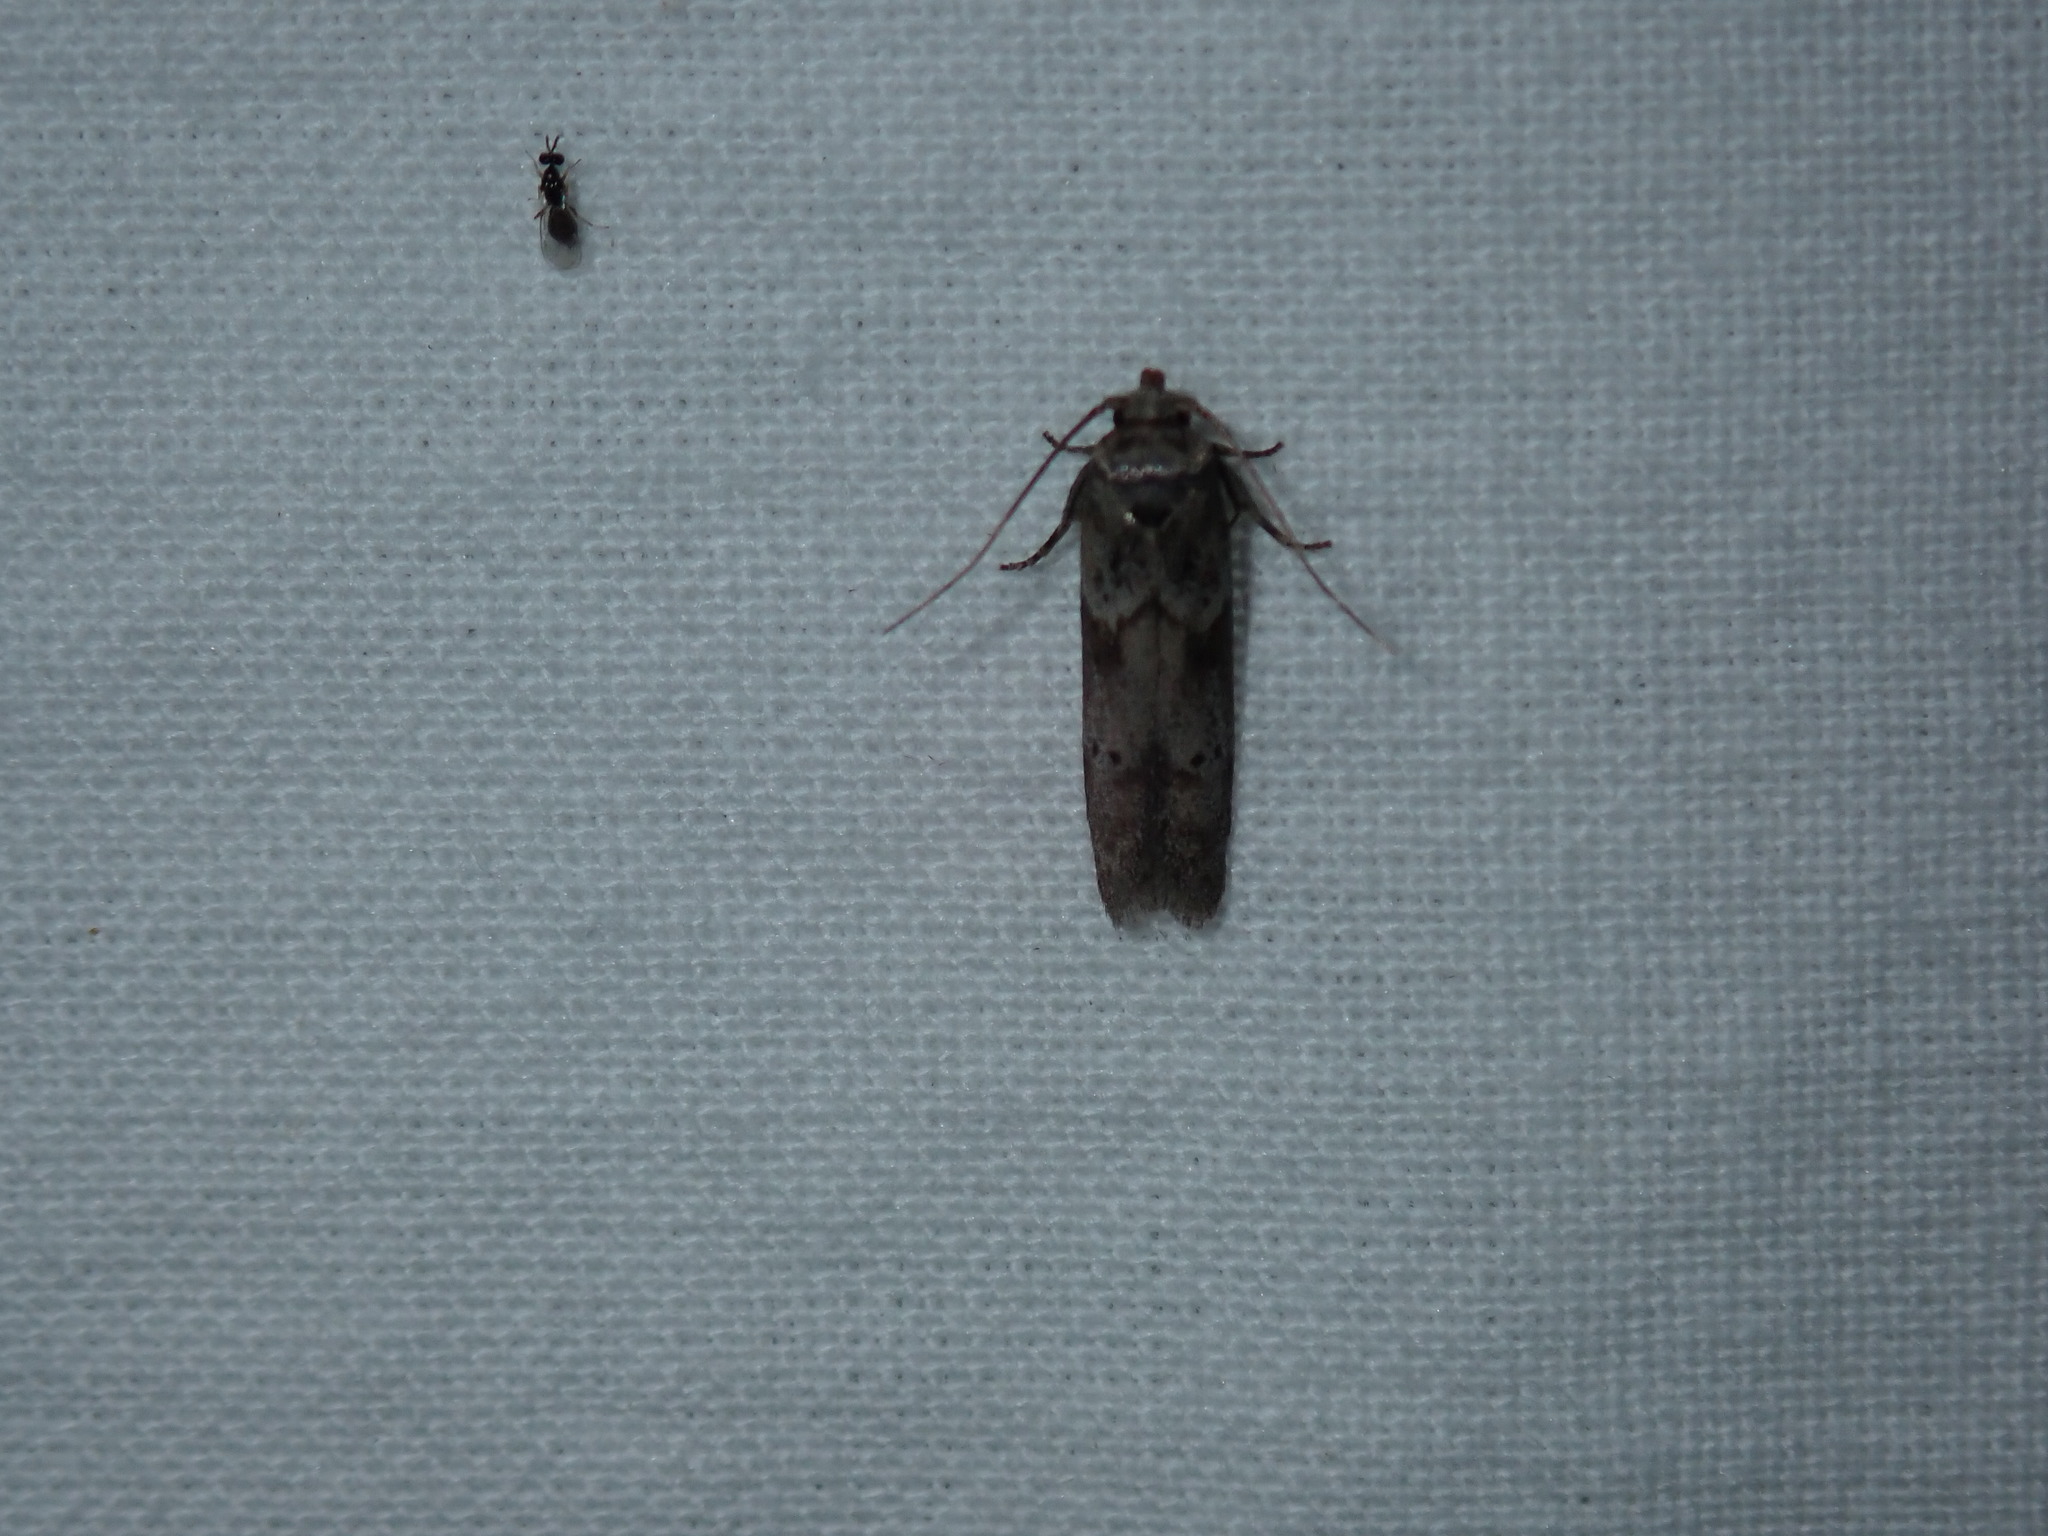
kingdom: Animalia
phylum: Arthropoda
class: Insecta
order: Lepidoptera
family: Blastobasidae
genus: Blastobasis
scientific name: Blastobasis glandulella
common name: Acorn moth
